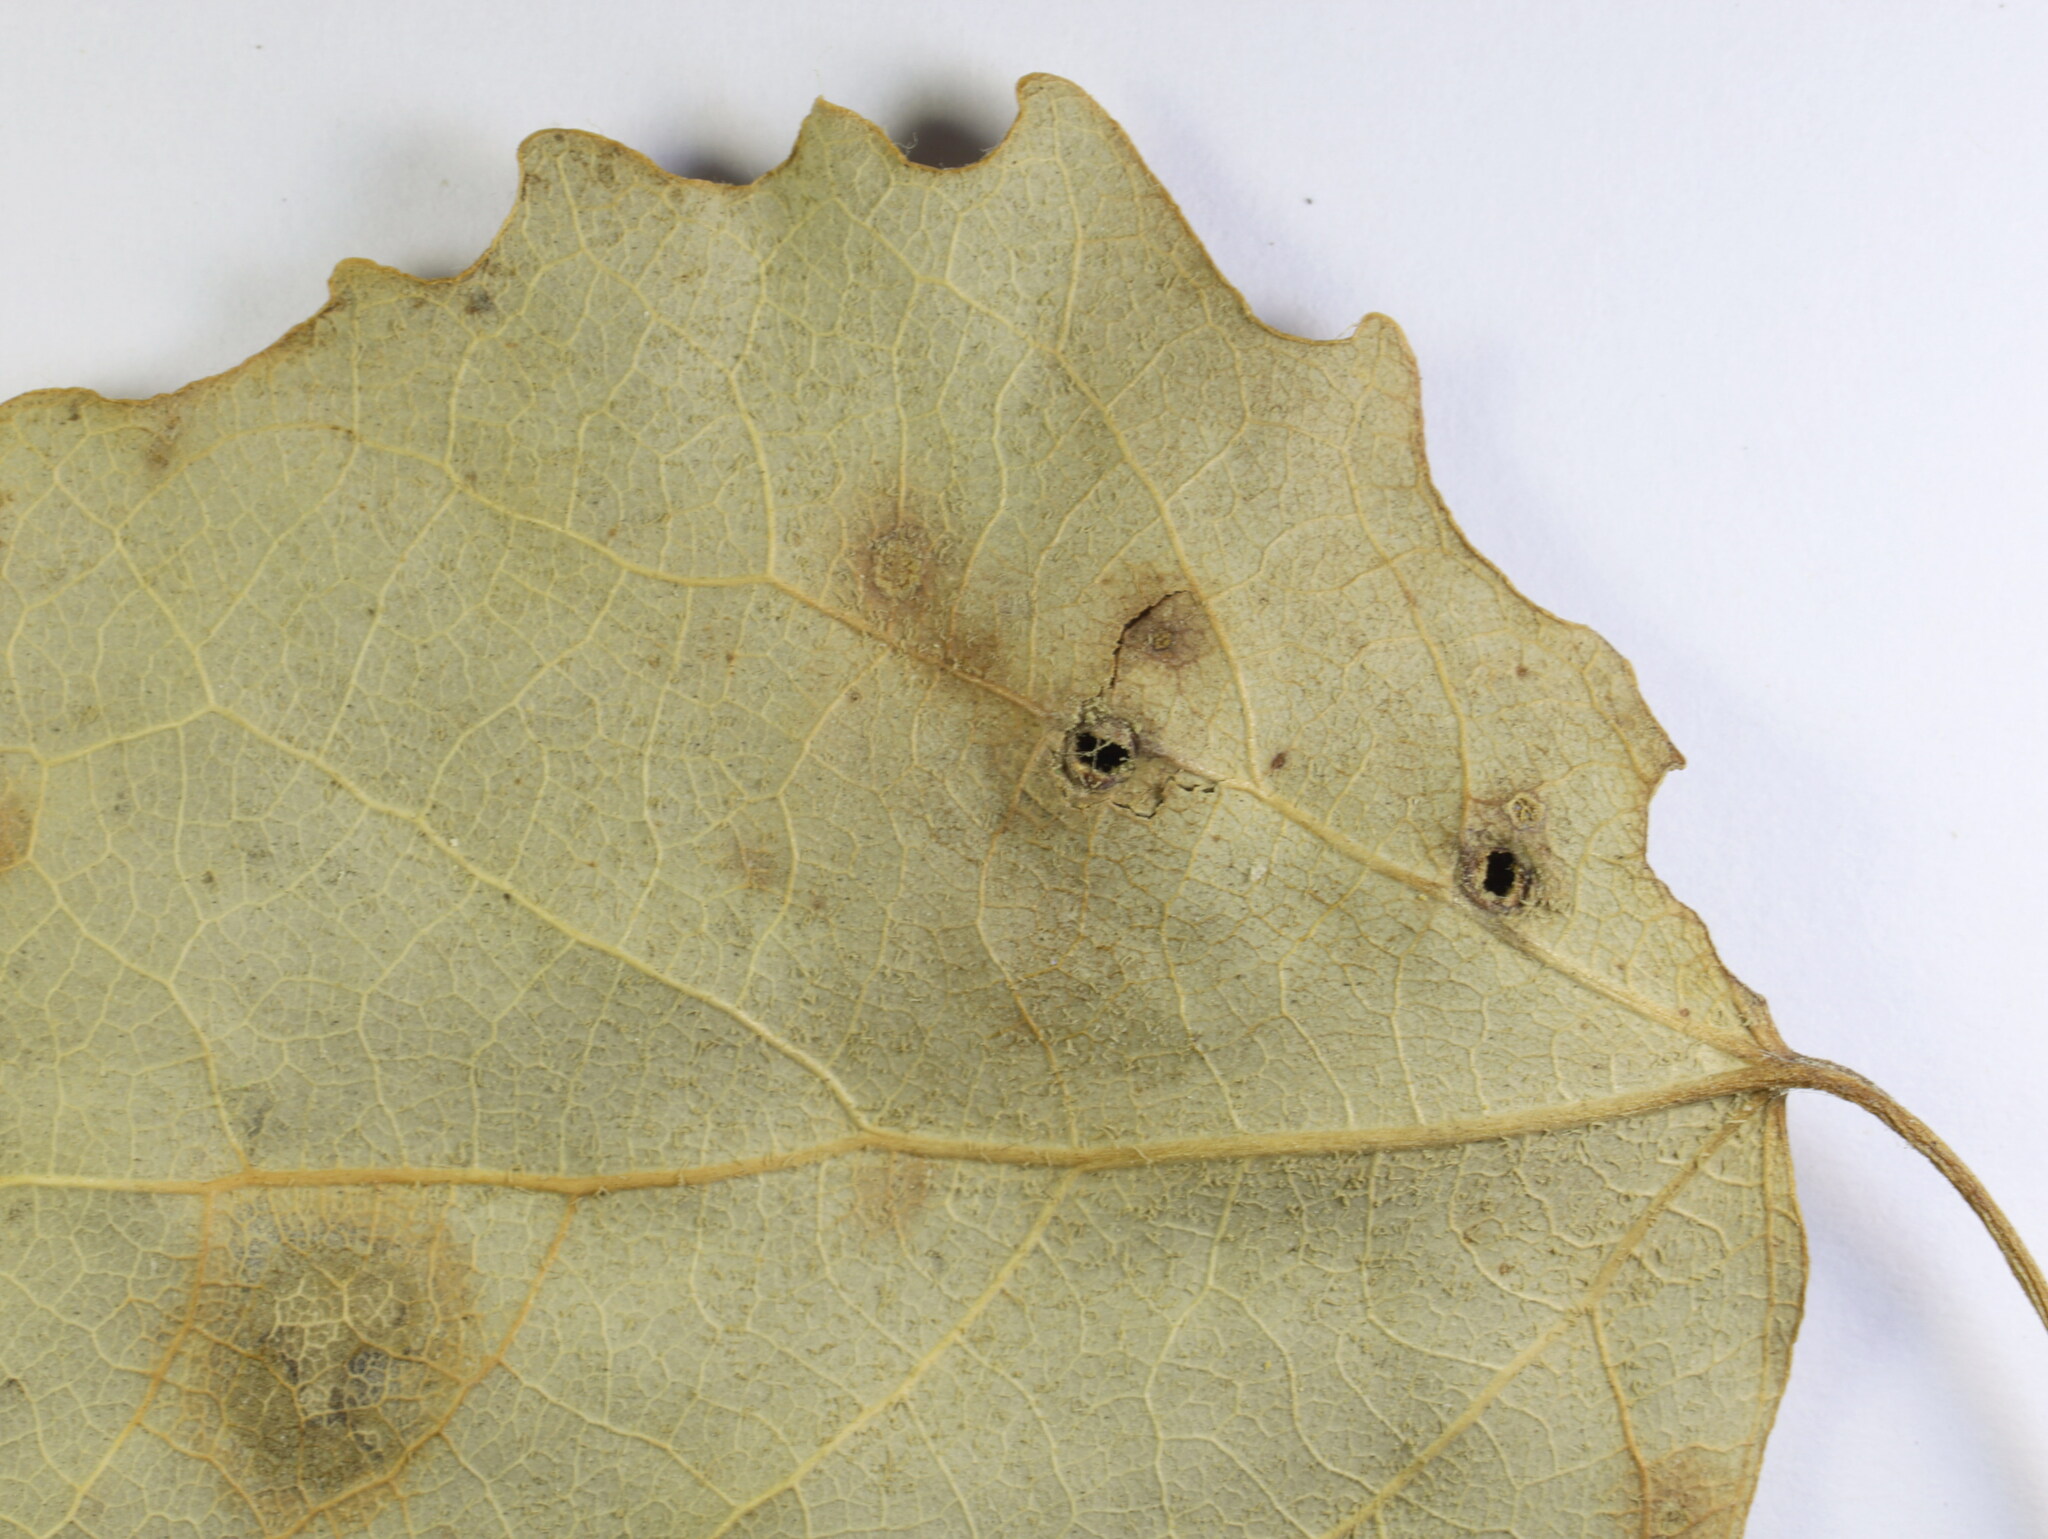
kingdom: Animalia
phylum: Arthropoda
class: Insecta
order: Diptera
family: Cecidomyiidae
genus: Harmandiola
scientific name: Harmandiola tremulae
